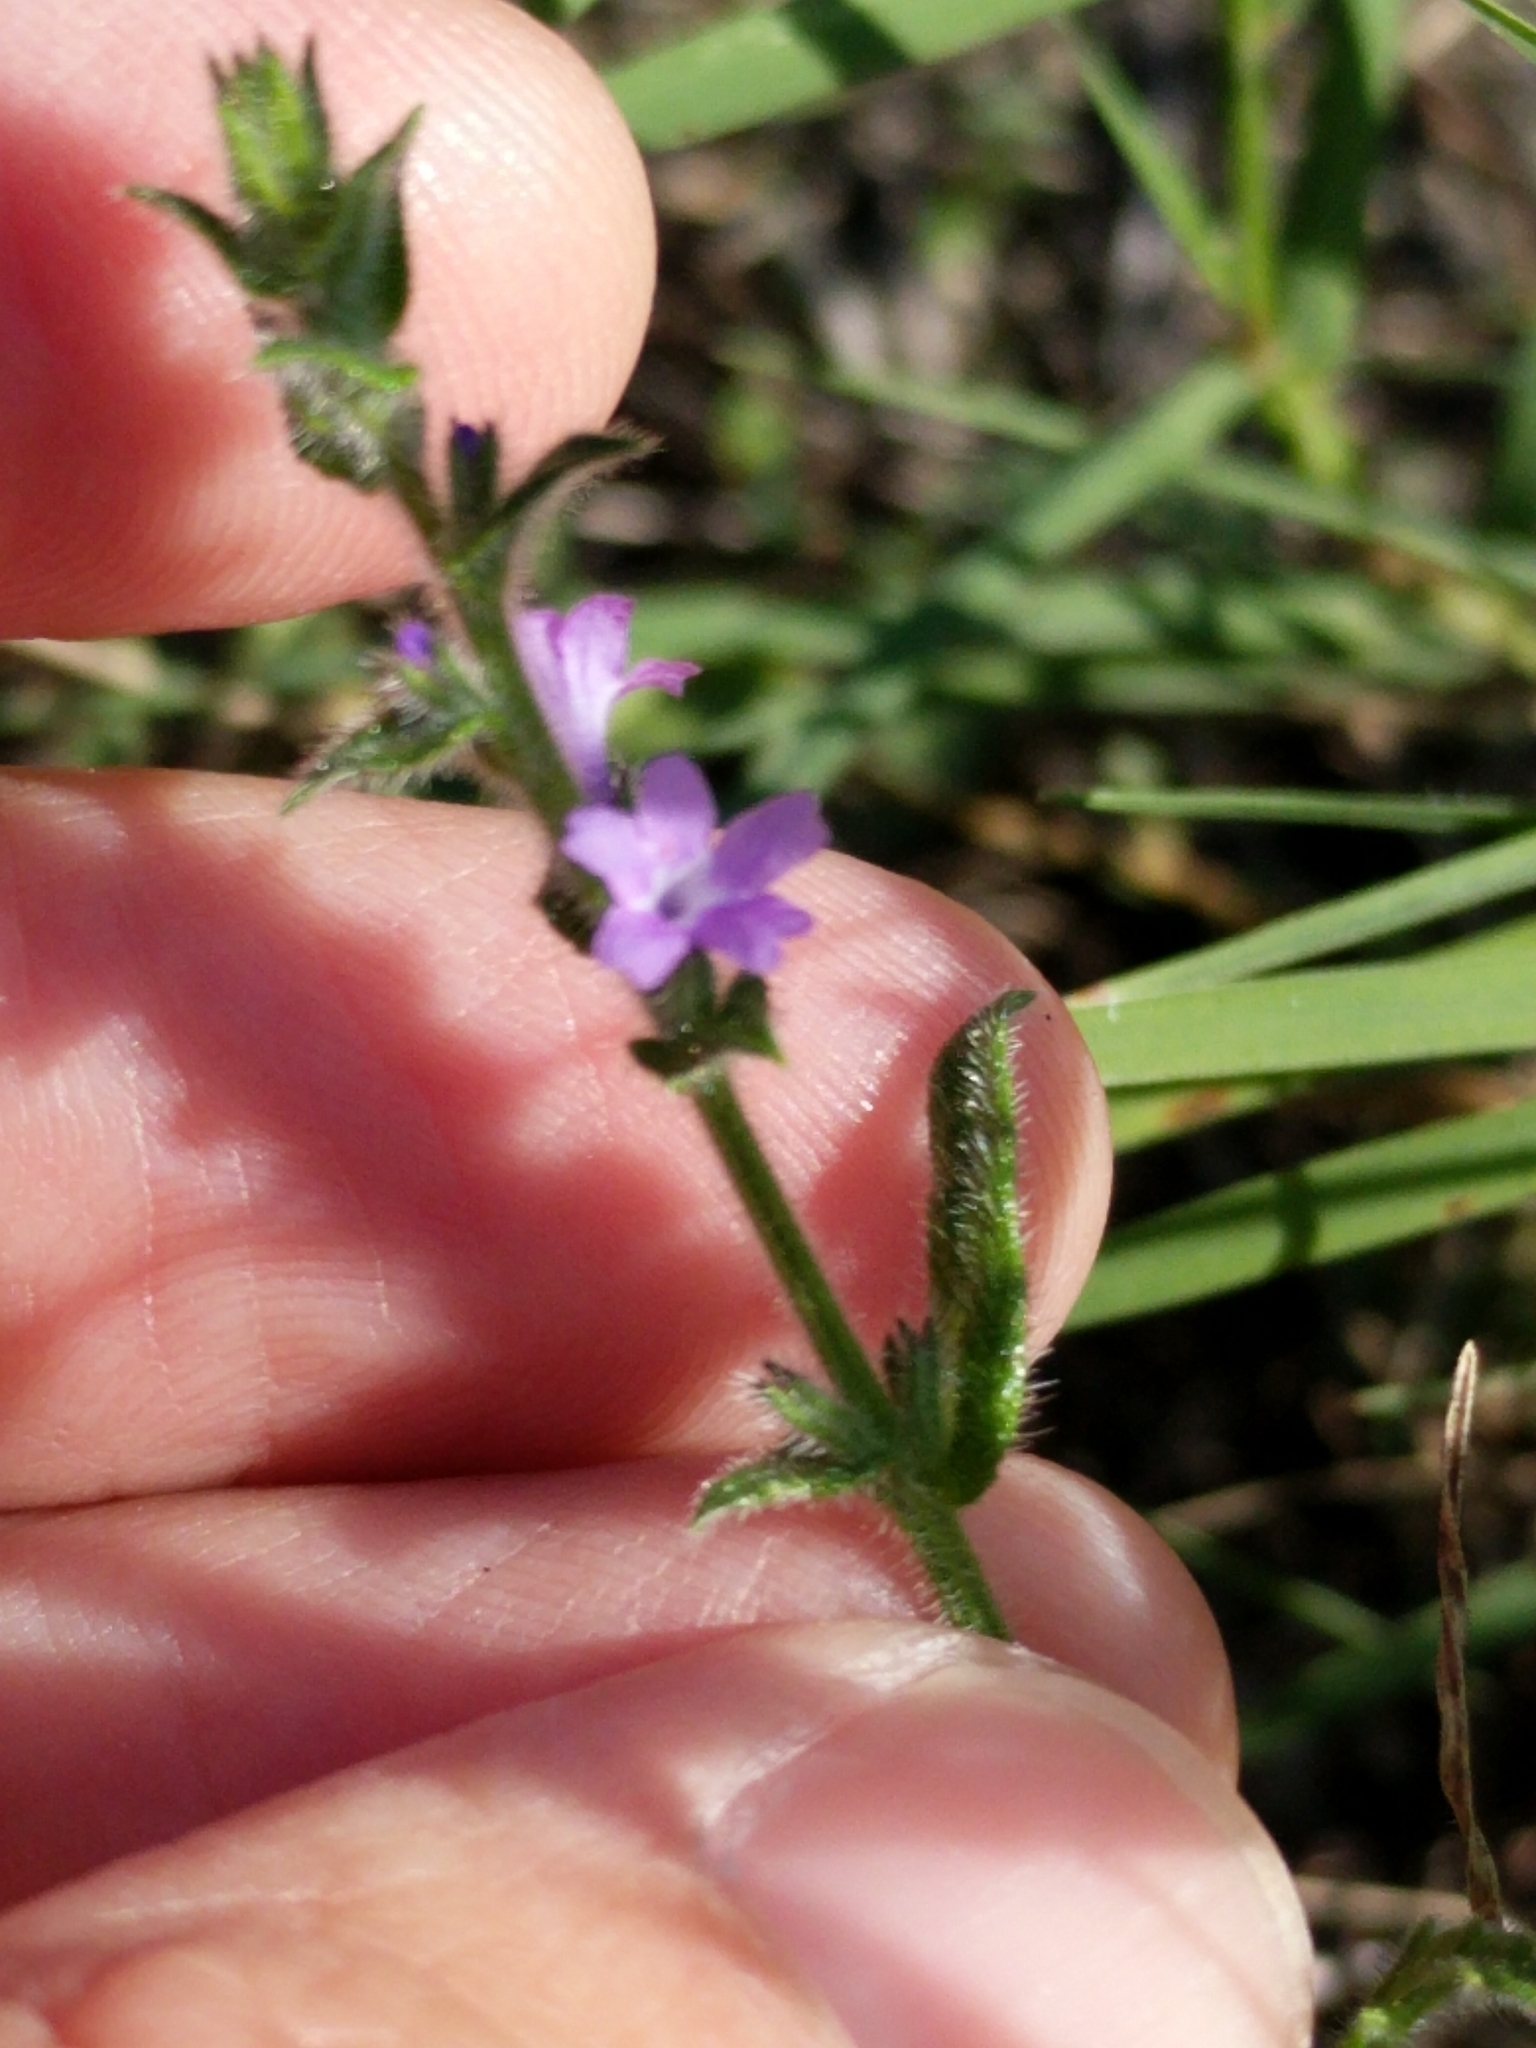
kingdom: Plantae
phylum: Tracheophyta
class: Magnoliopsida
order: Lamiales
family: Verbenaceae
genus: Verbena
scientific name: Verbena canescens
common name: Gray vervain
